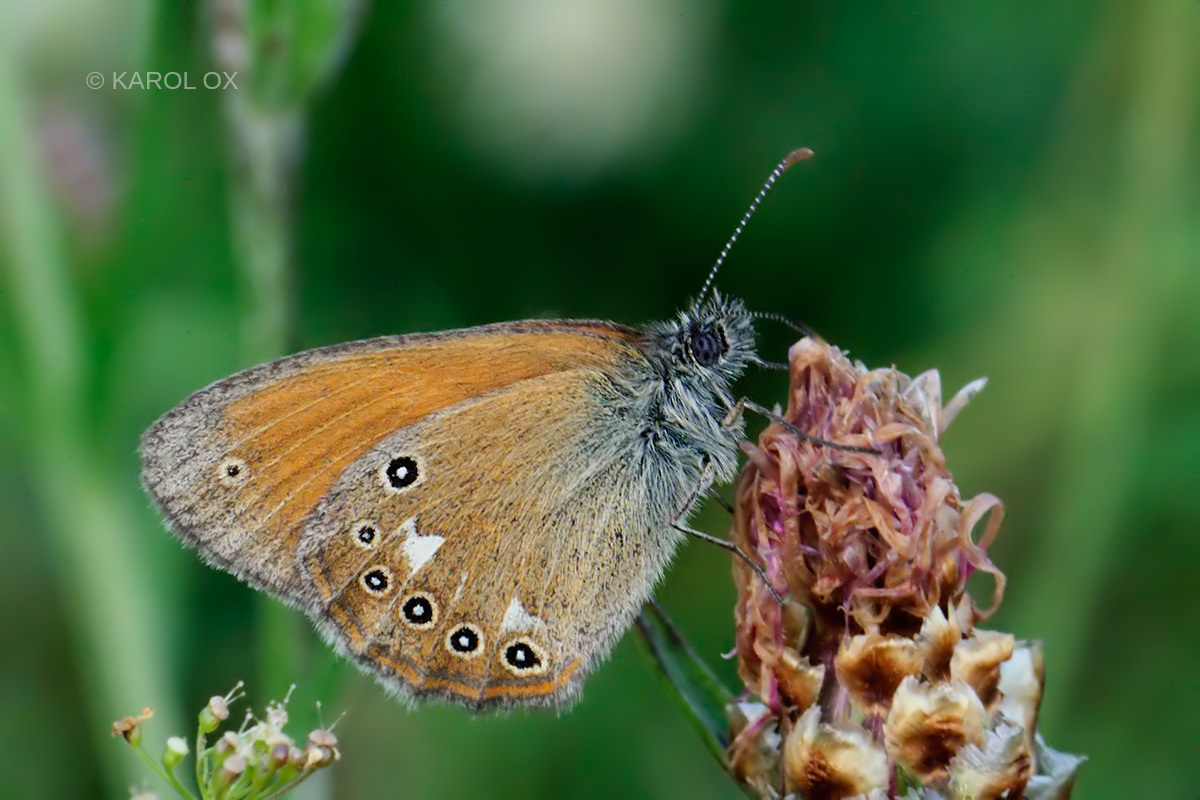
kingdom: Animalia
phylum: Arthropoda
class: Insecta
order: Lepidoptera
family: Nymphalidae
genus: Coenonympha
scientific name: Coenonympha iphis
